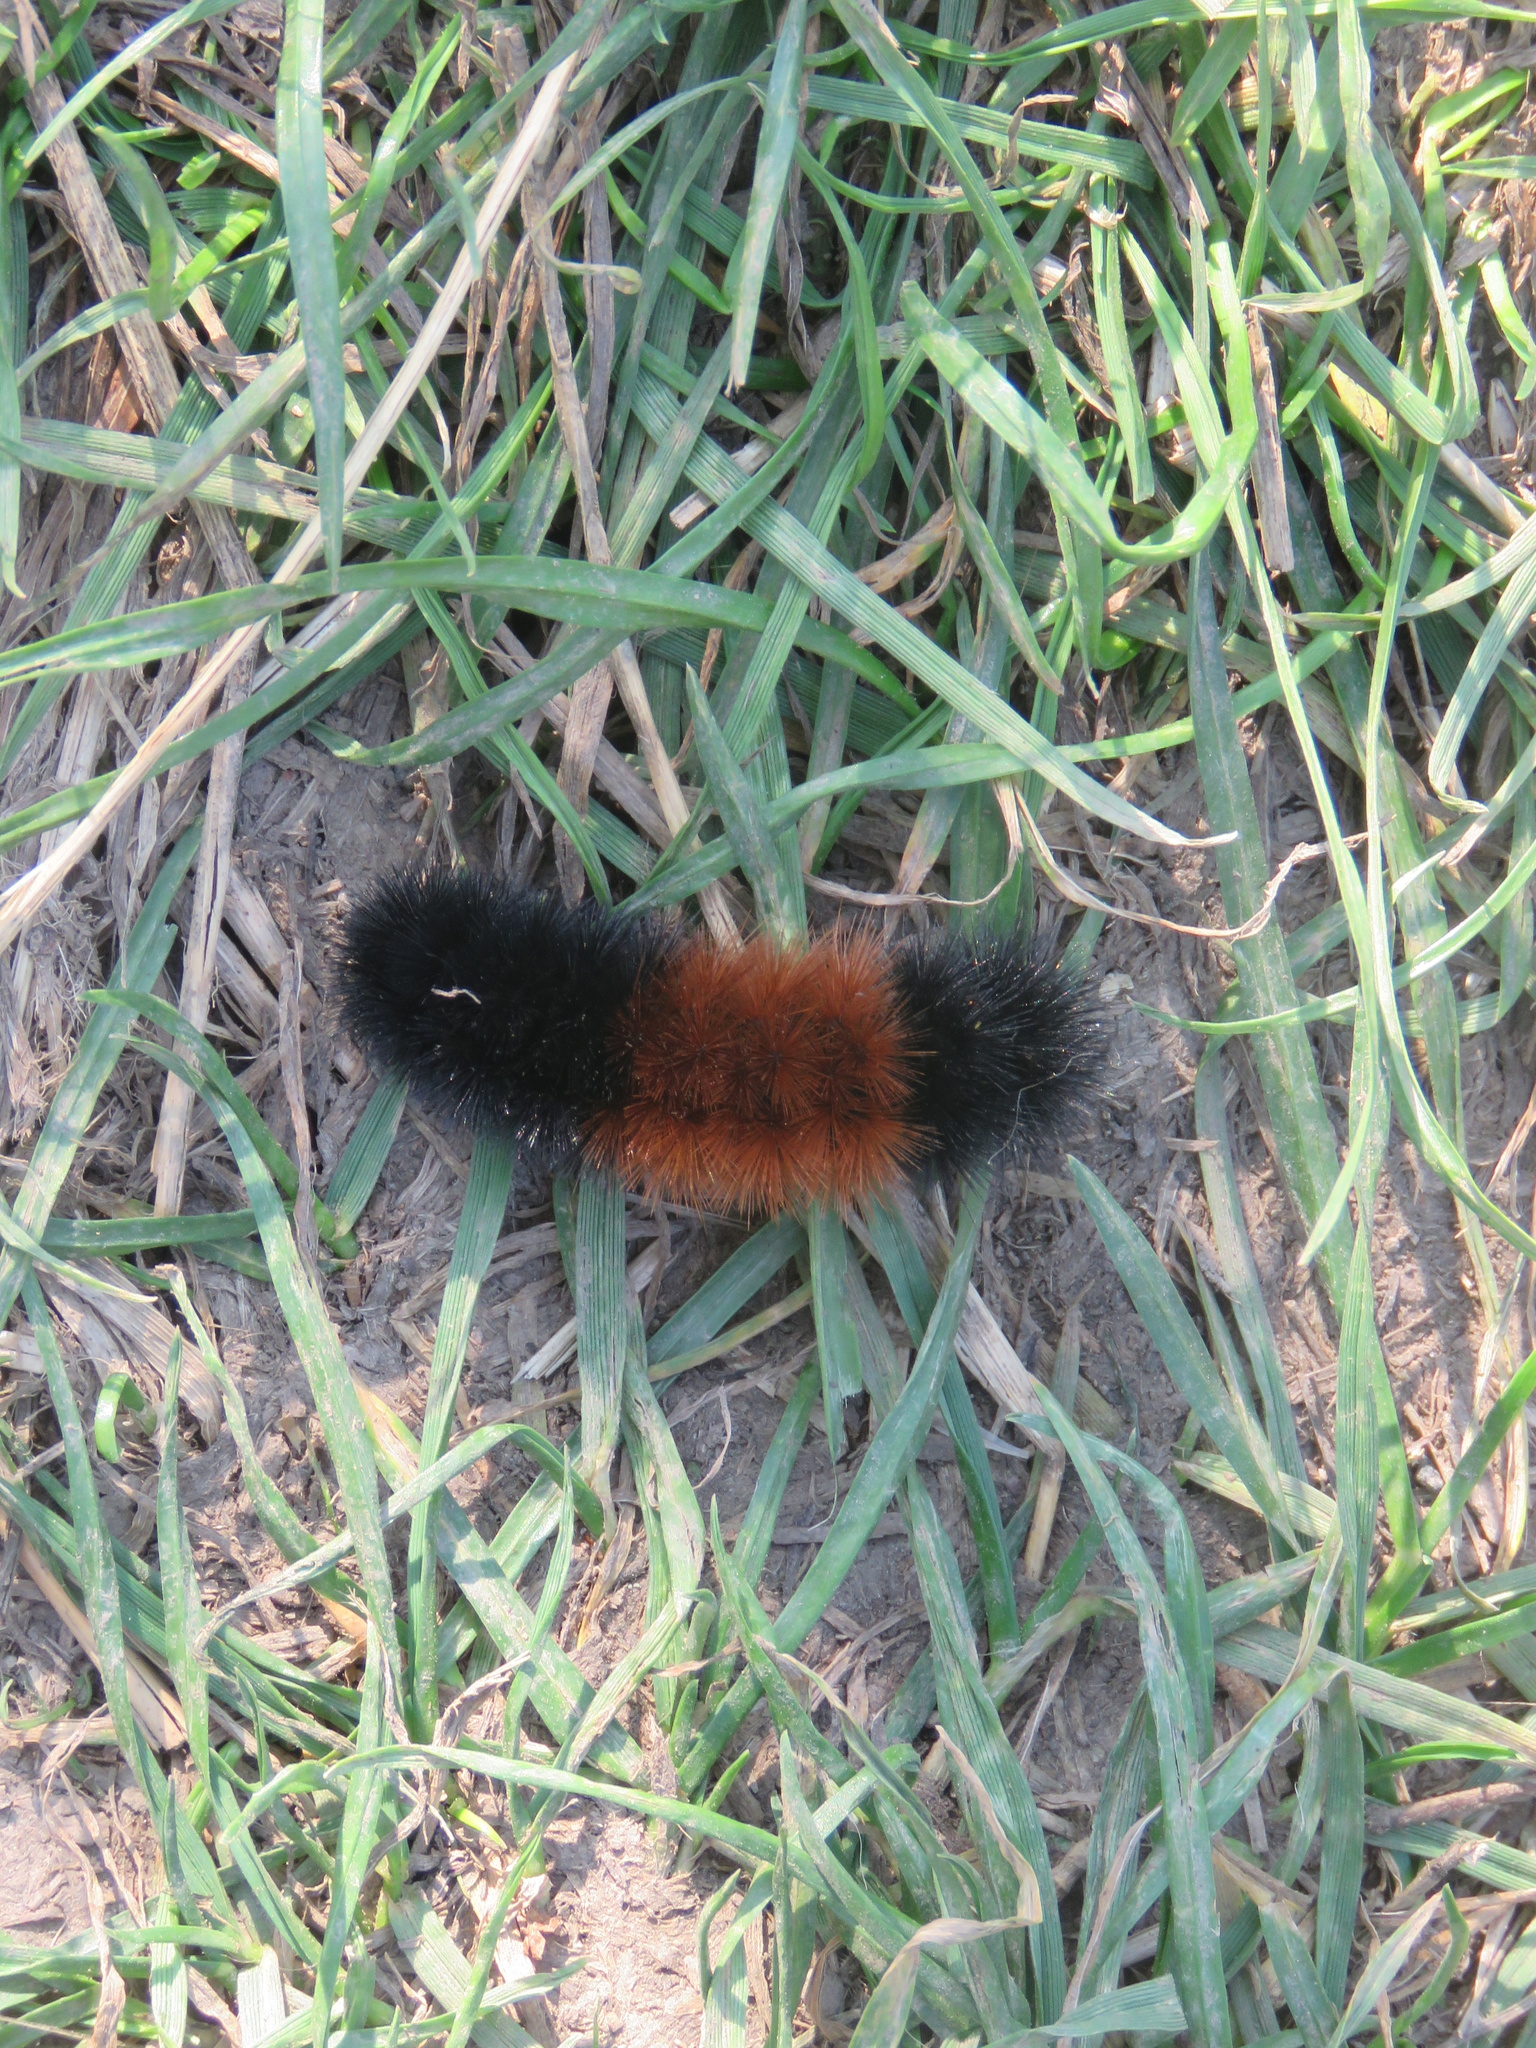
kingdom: Animalia
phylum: Arthropoda
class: Insecta
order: Lepidoptera
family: Erebidae
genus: Pyrrharctia
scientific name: Pyrrharctia isabella
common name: Isabella tiger moth
